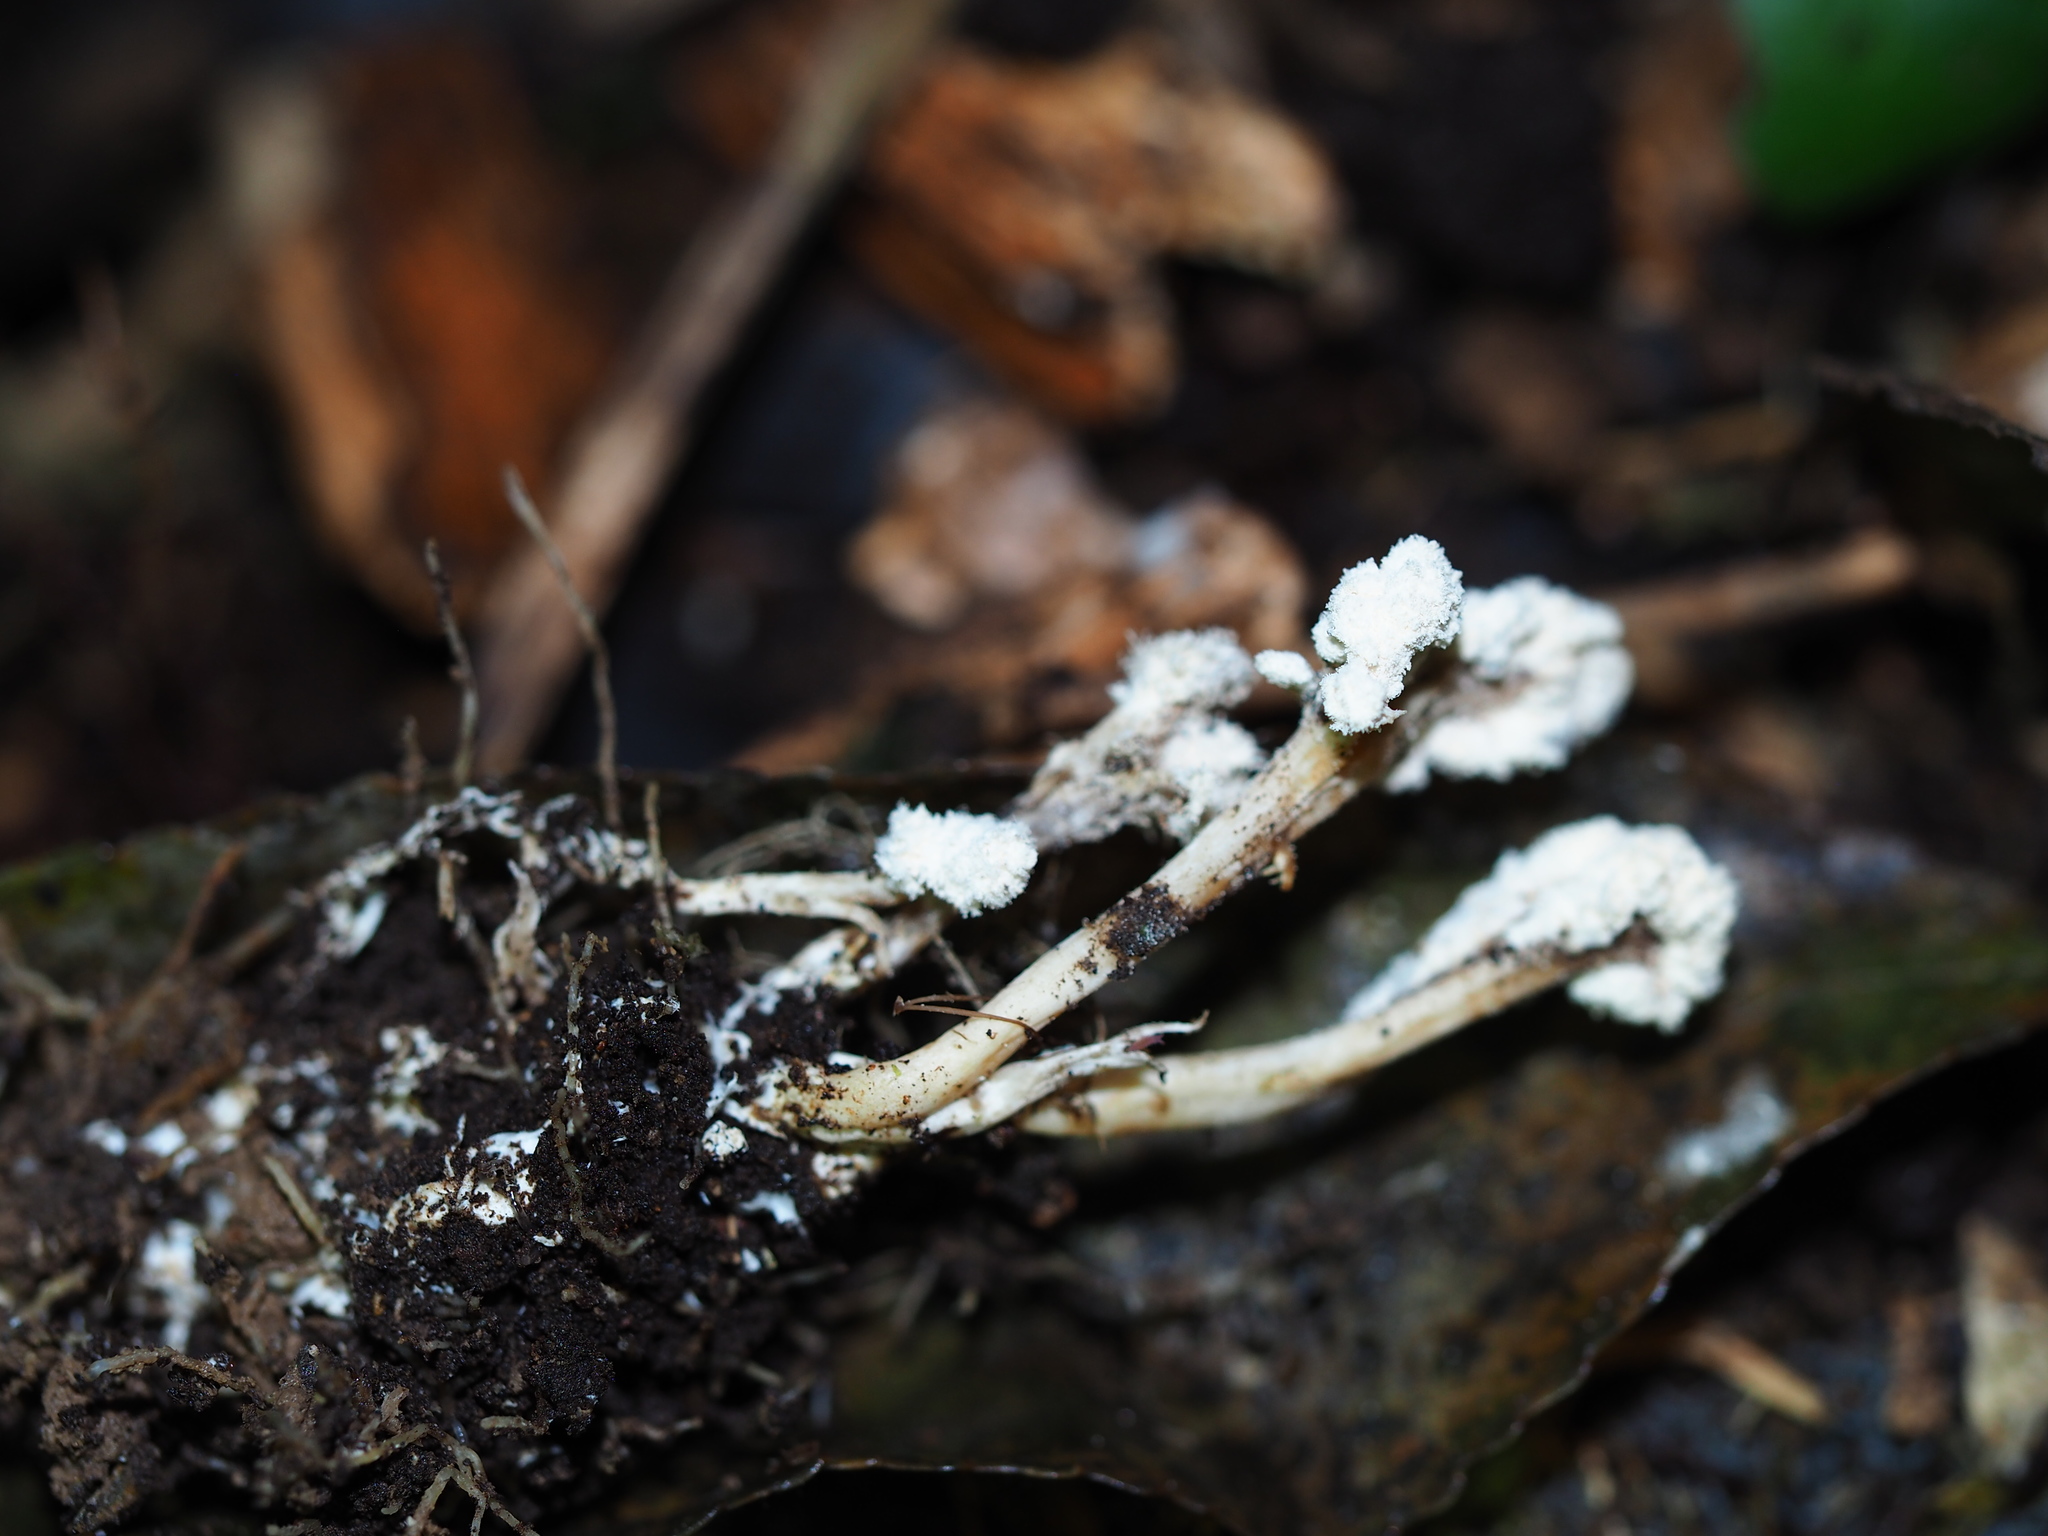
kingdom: Fungi
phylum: Ascomycota
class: Sordariomycetes
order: Hypocreales
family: Cordycipitaceae
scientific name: Cordycipitaceae
